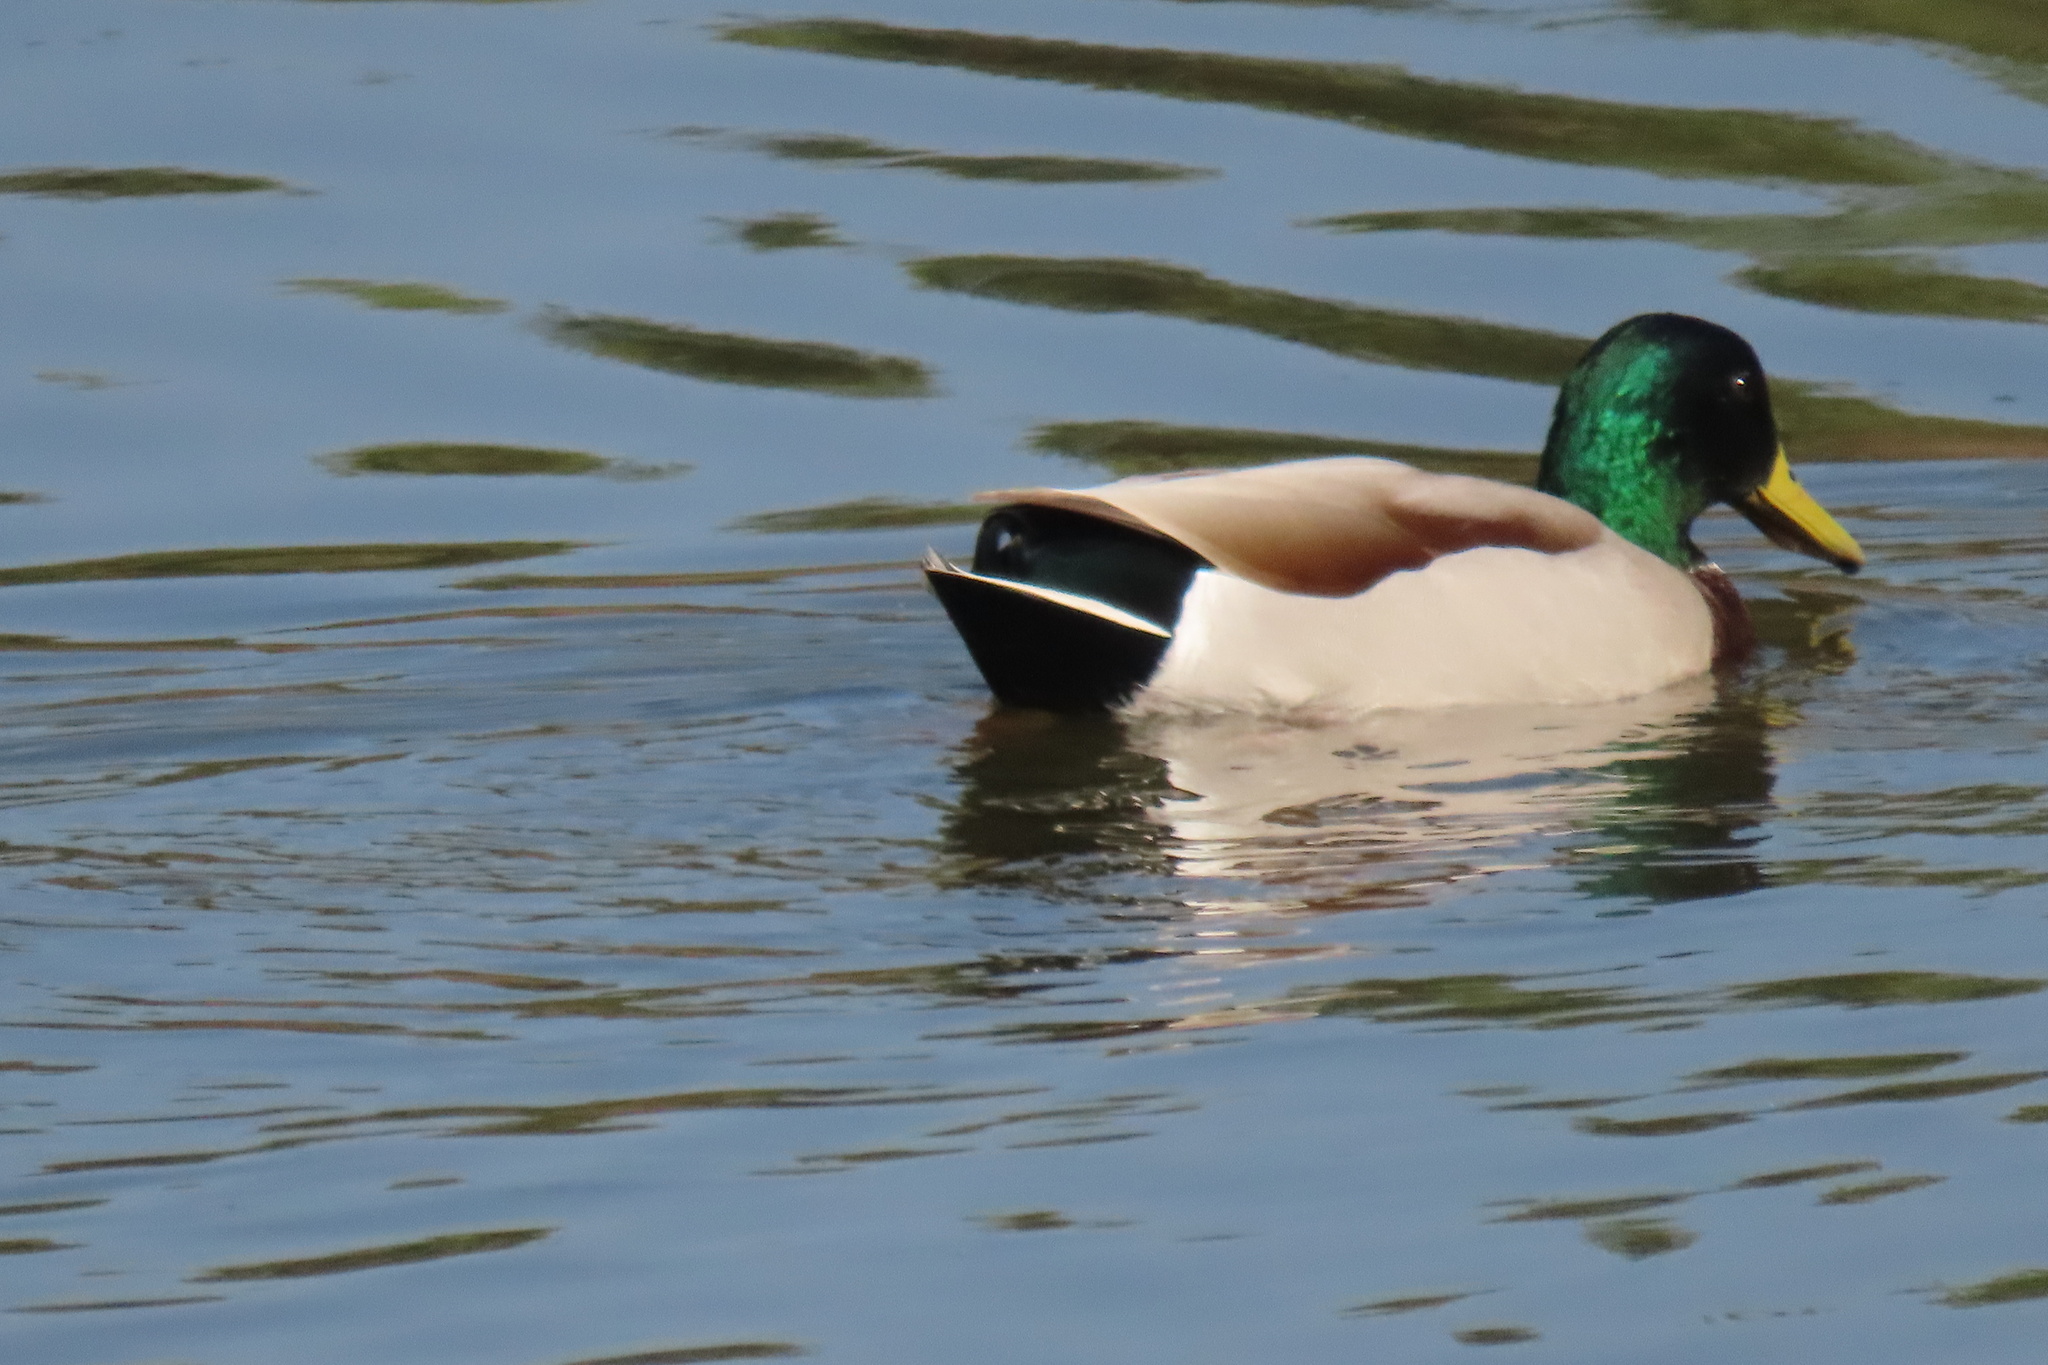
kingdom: Animalia
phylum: Chordata
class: Aves
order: Anseriformes
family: Anatidae
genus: Anas
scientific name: Anas platyrhynchos
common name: Mallard
